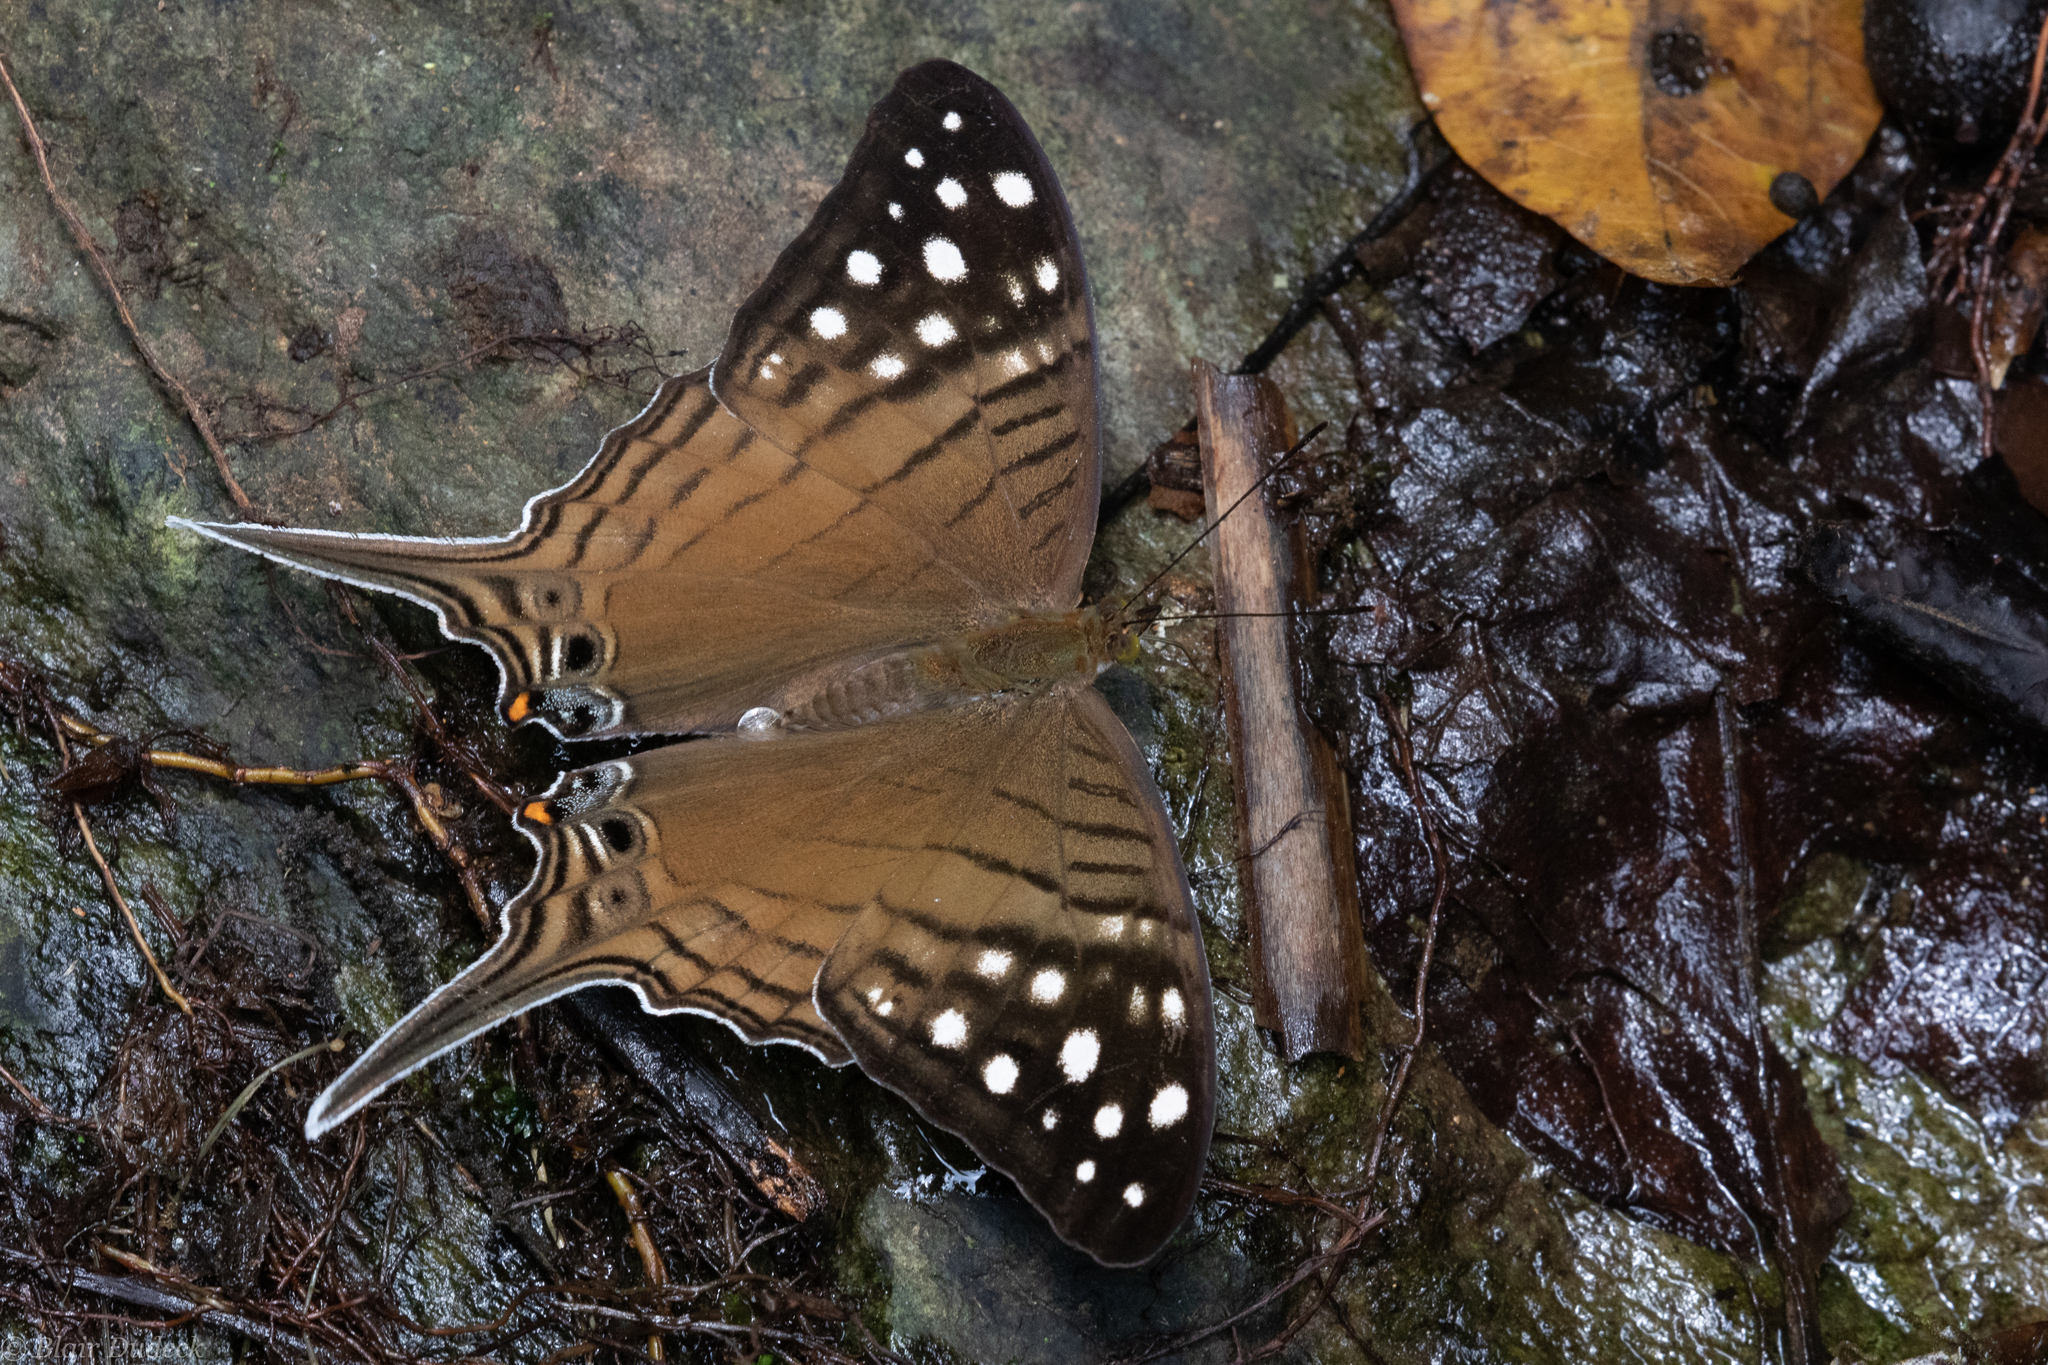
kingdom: Animalia
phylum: Arthropoda
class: Insecta
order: Lepidoptera
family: Nymphalidae
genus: Marpesia
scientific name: Marpesia merops
